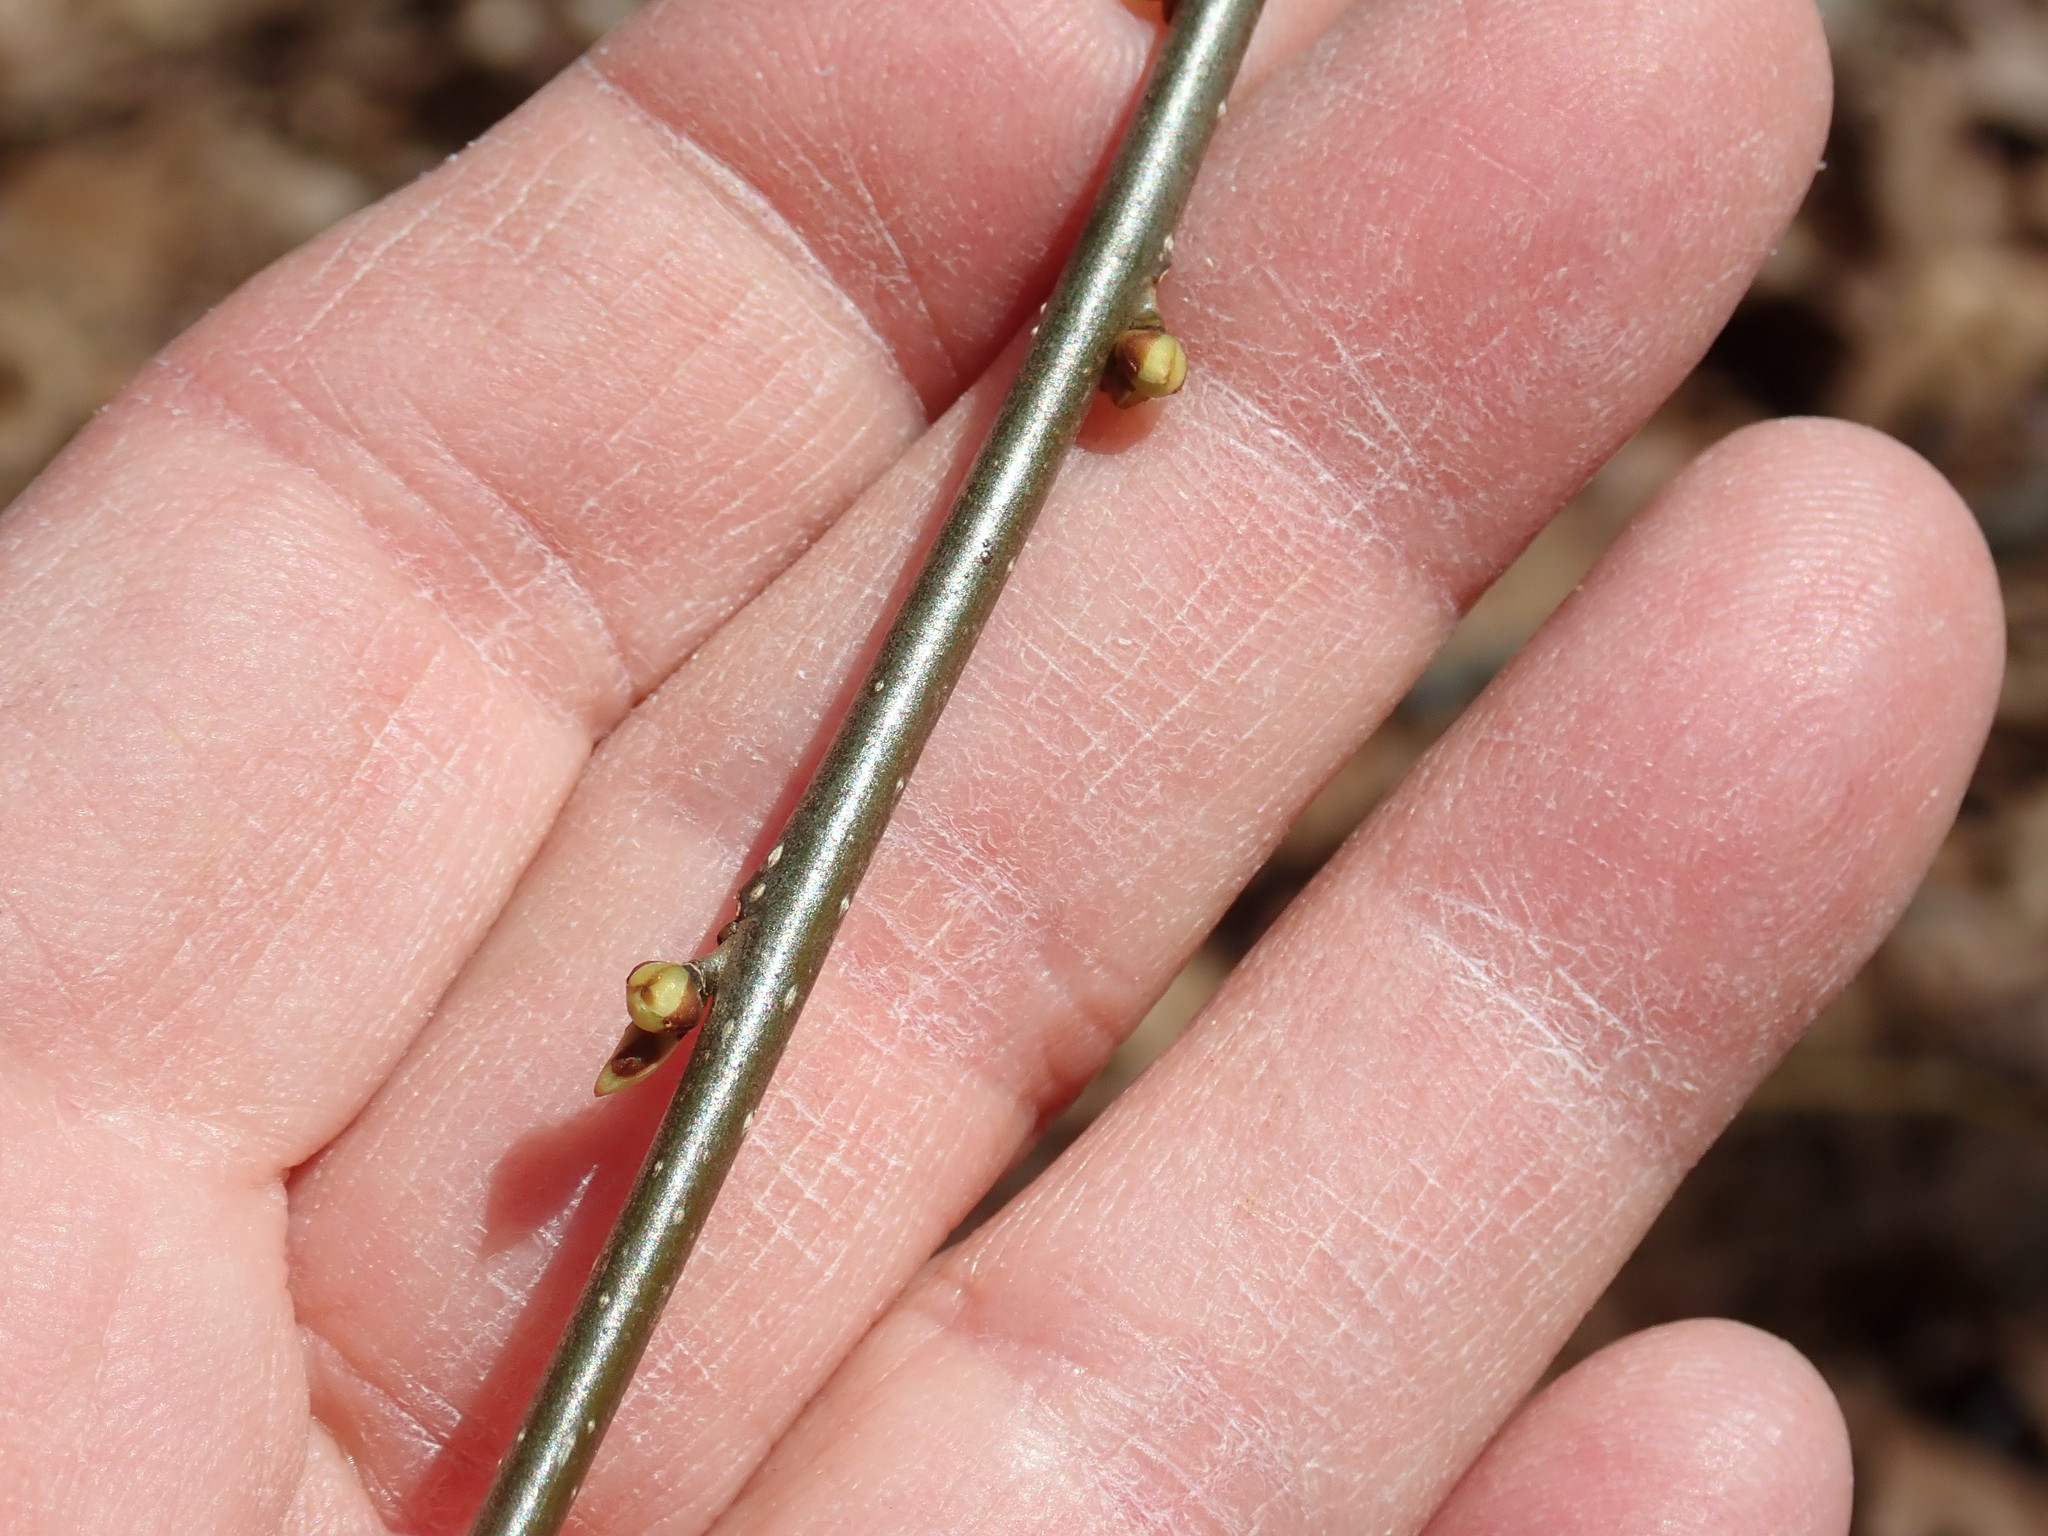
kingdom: Plantae
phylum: Tracheophyta
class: Magnoliopsida
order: Laurales
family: Lauraceae
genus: Lindera
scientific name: Lindera benzoin
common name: Spicebush
